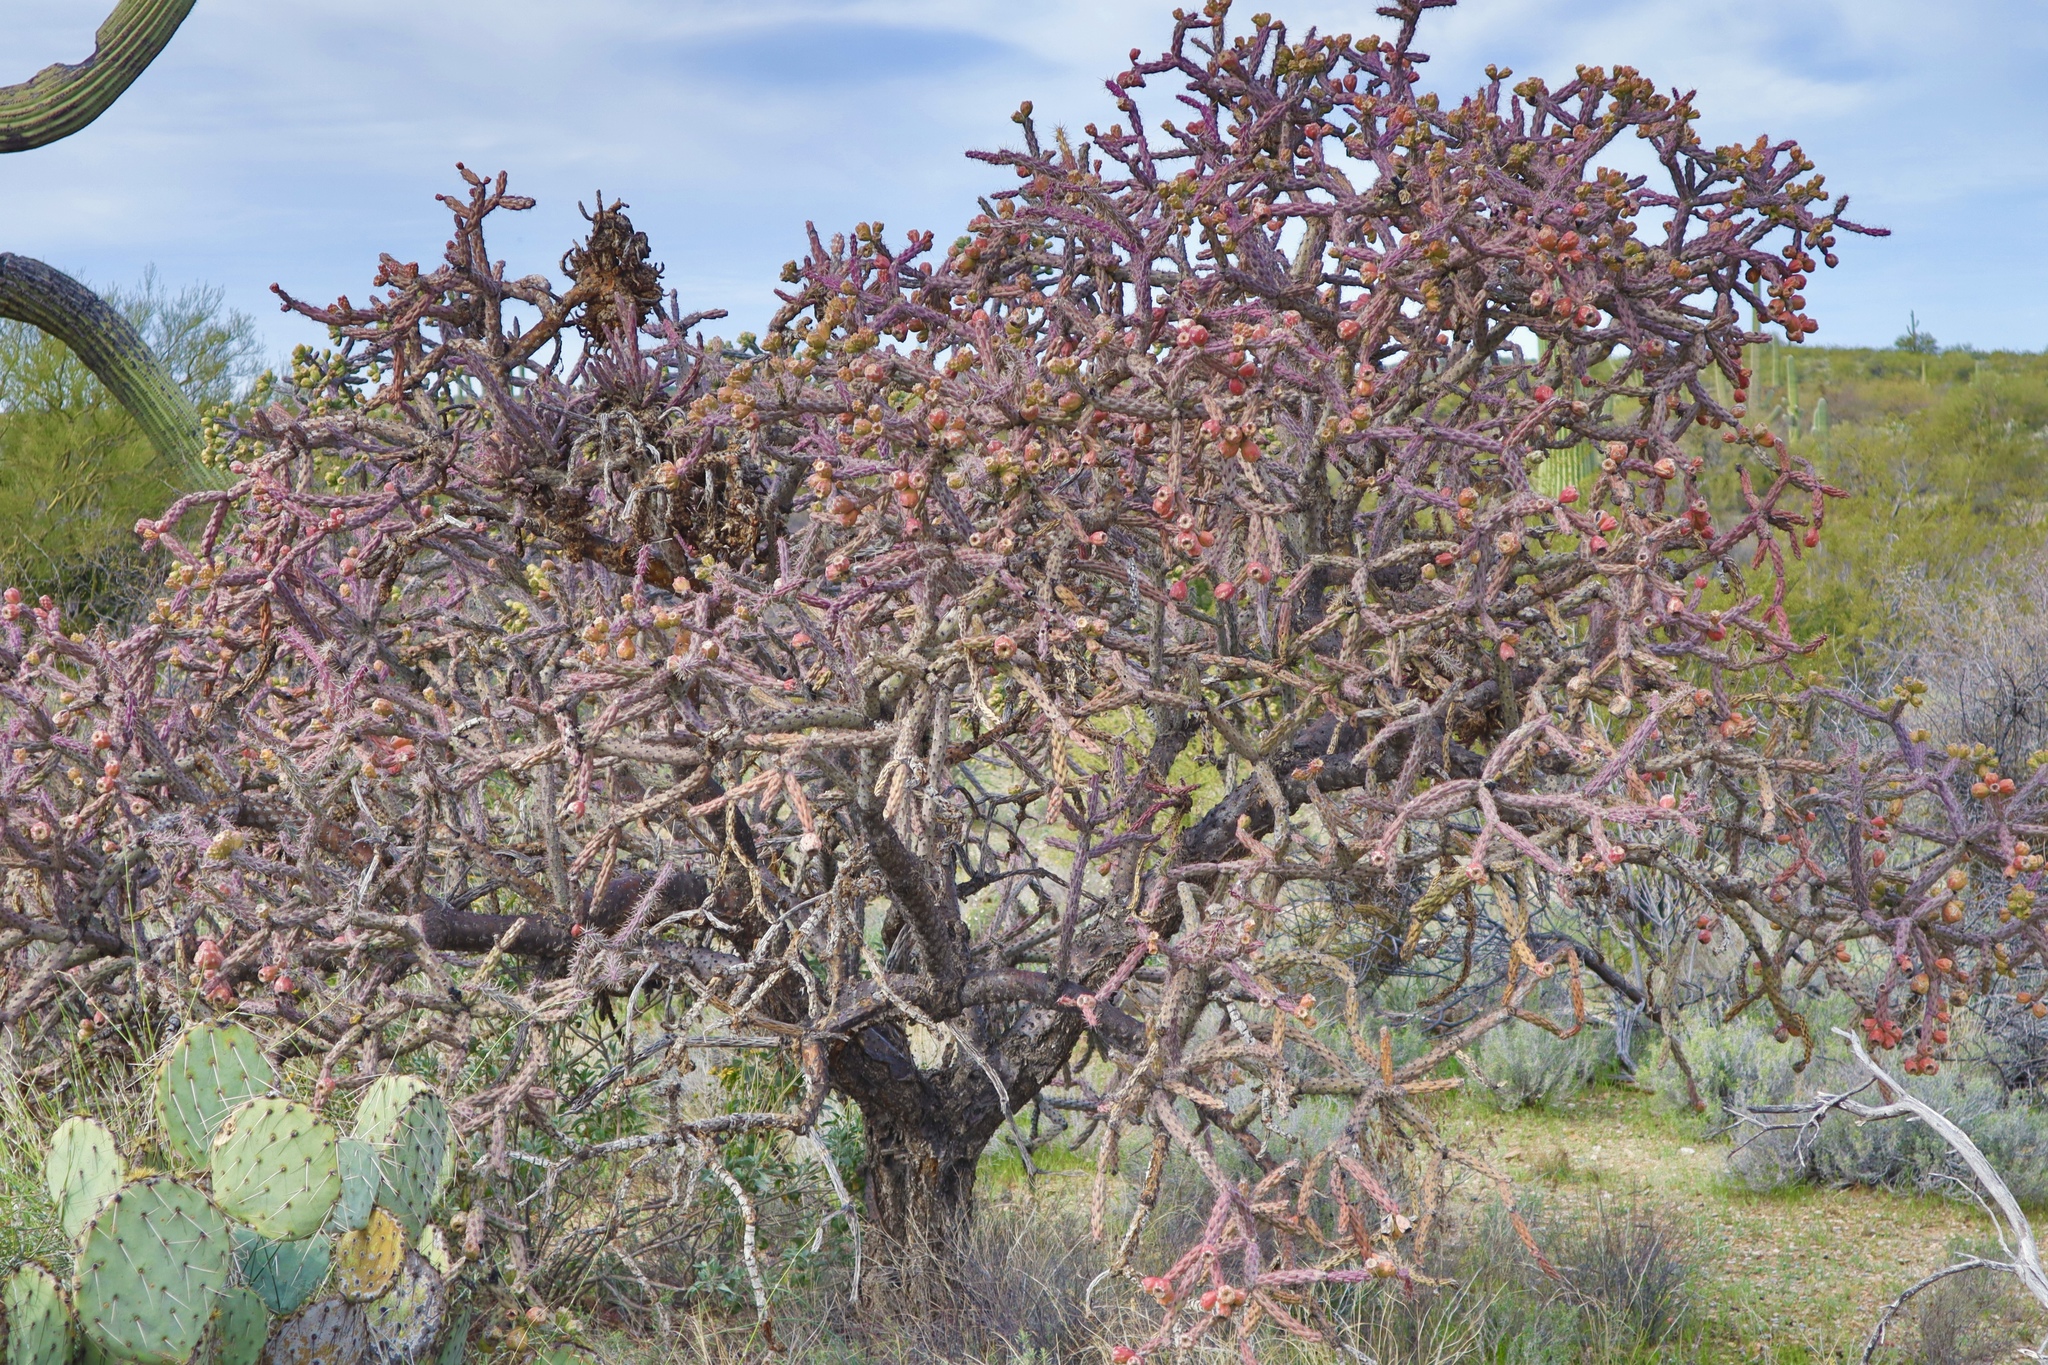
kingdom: Plantae
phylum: Tracheophyta
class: Magnoliopsida
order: Caryophyllales
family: Cactaceae
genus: Cylindropuntia
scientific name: Cylindropuntia thurberi
